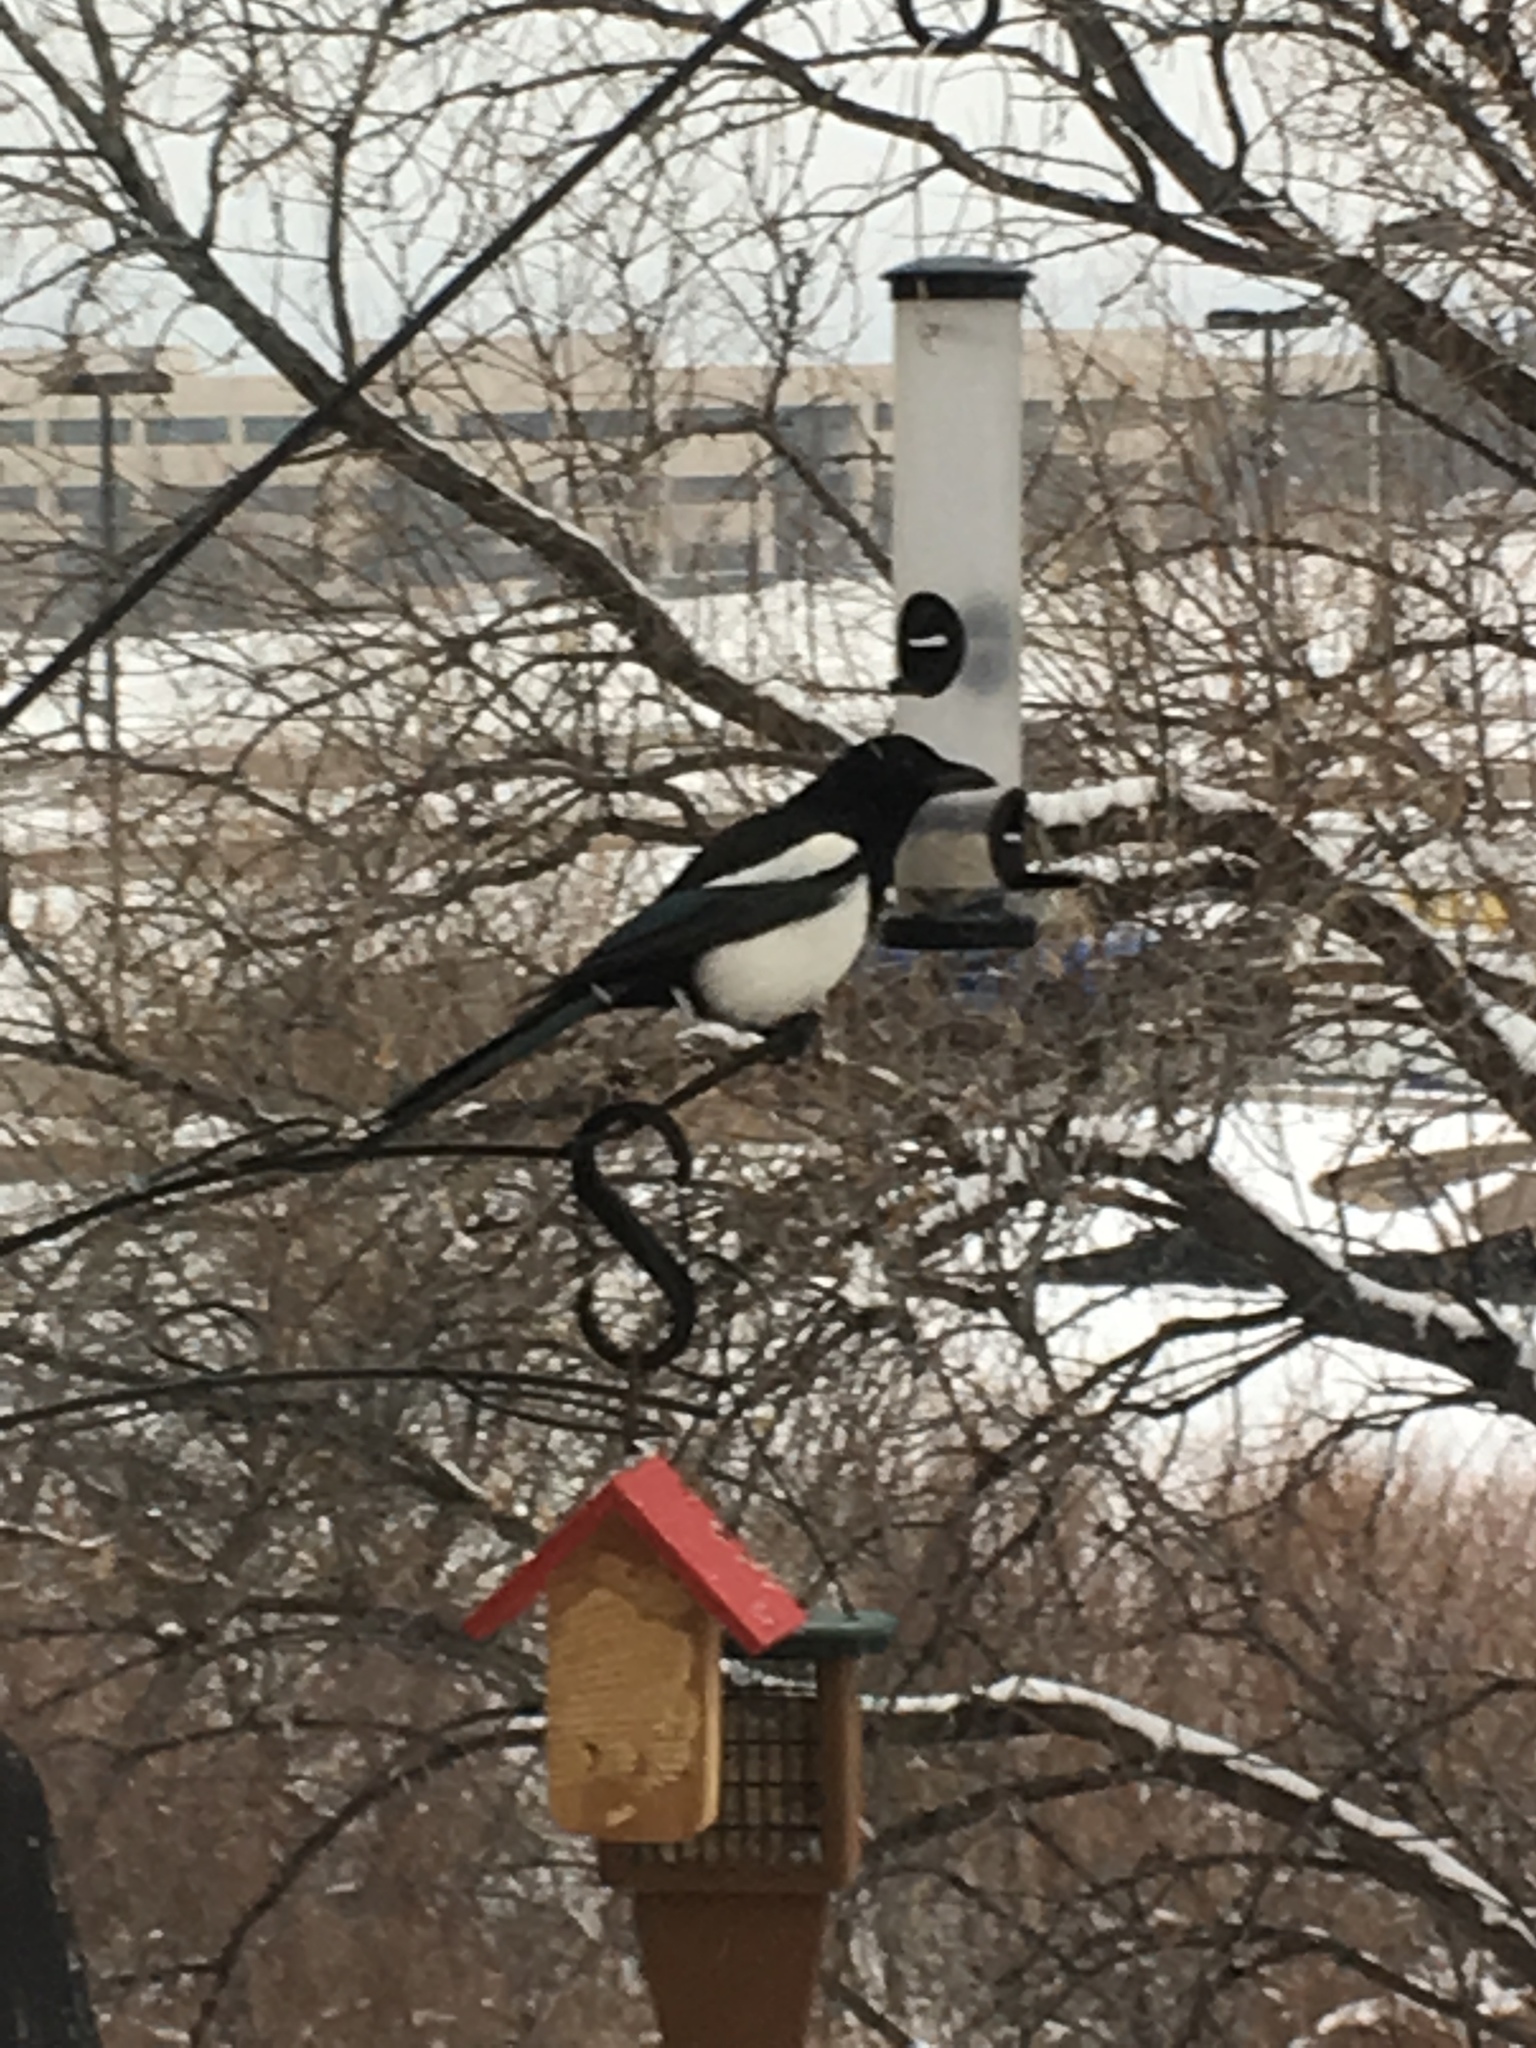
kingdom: Animalia
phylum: Chordata
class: Aves
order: Passeriformes
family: Corvidae
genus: Pica
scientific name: Pica hudsonia
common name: Black-billed magpie
